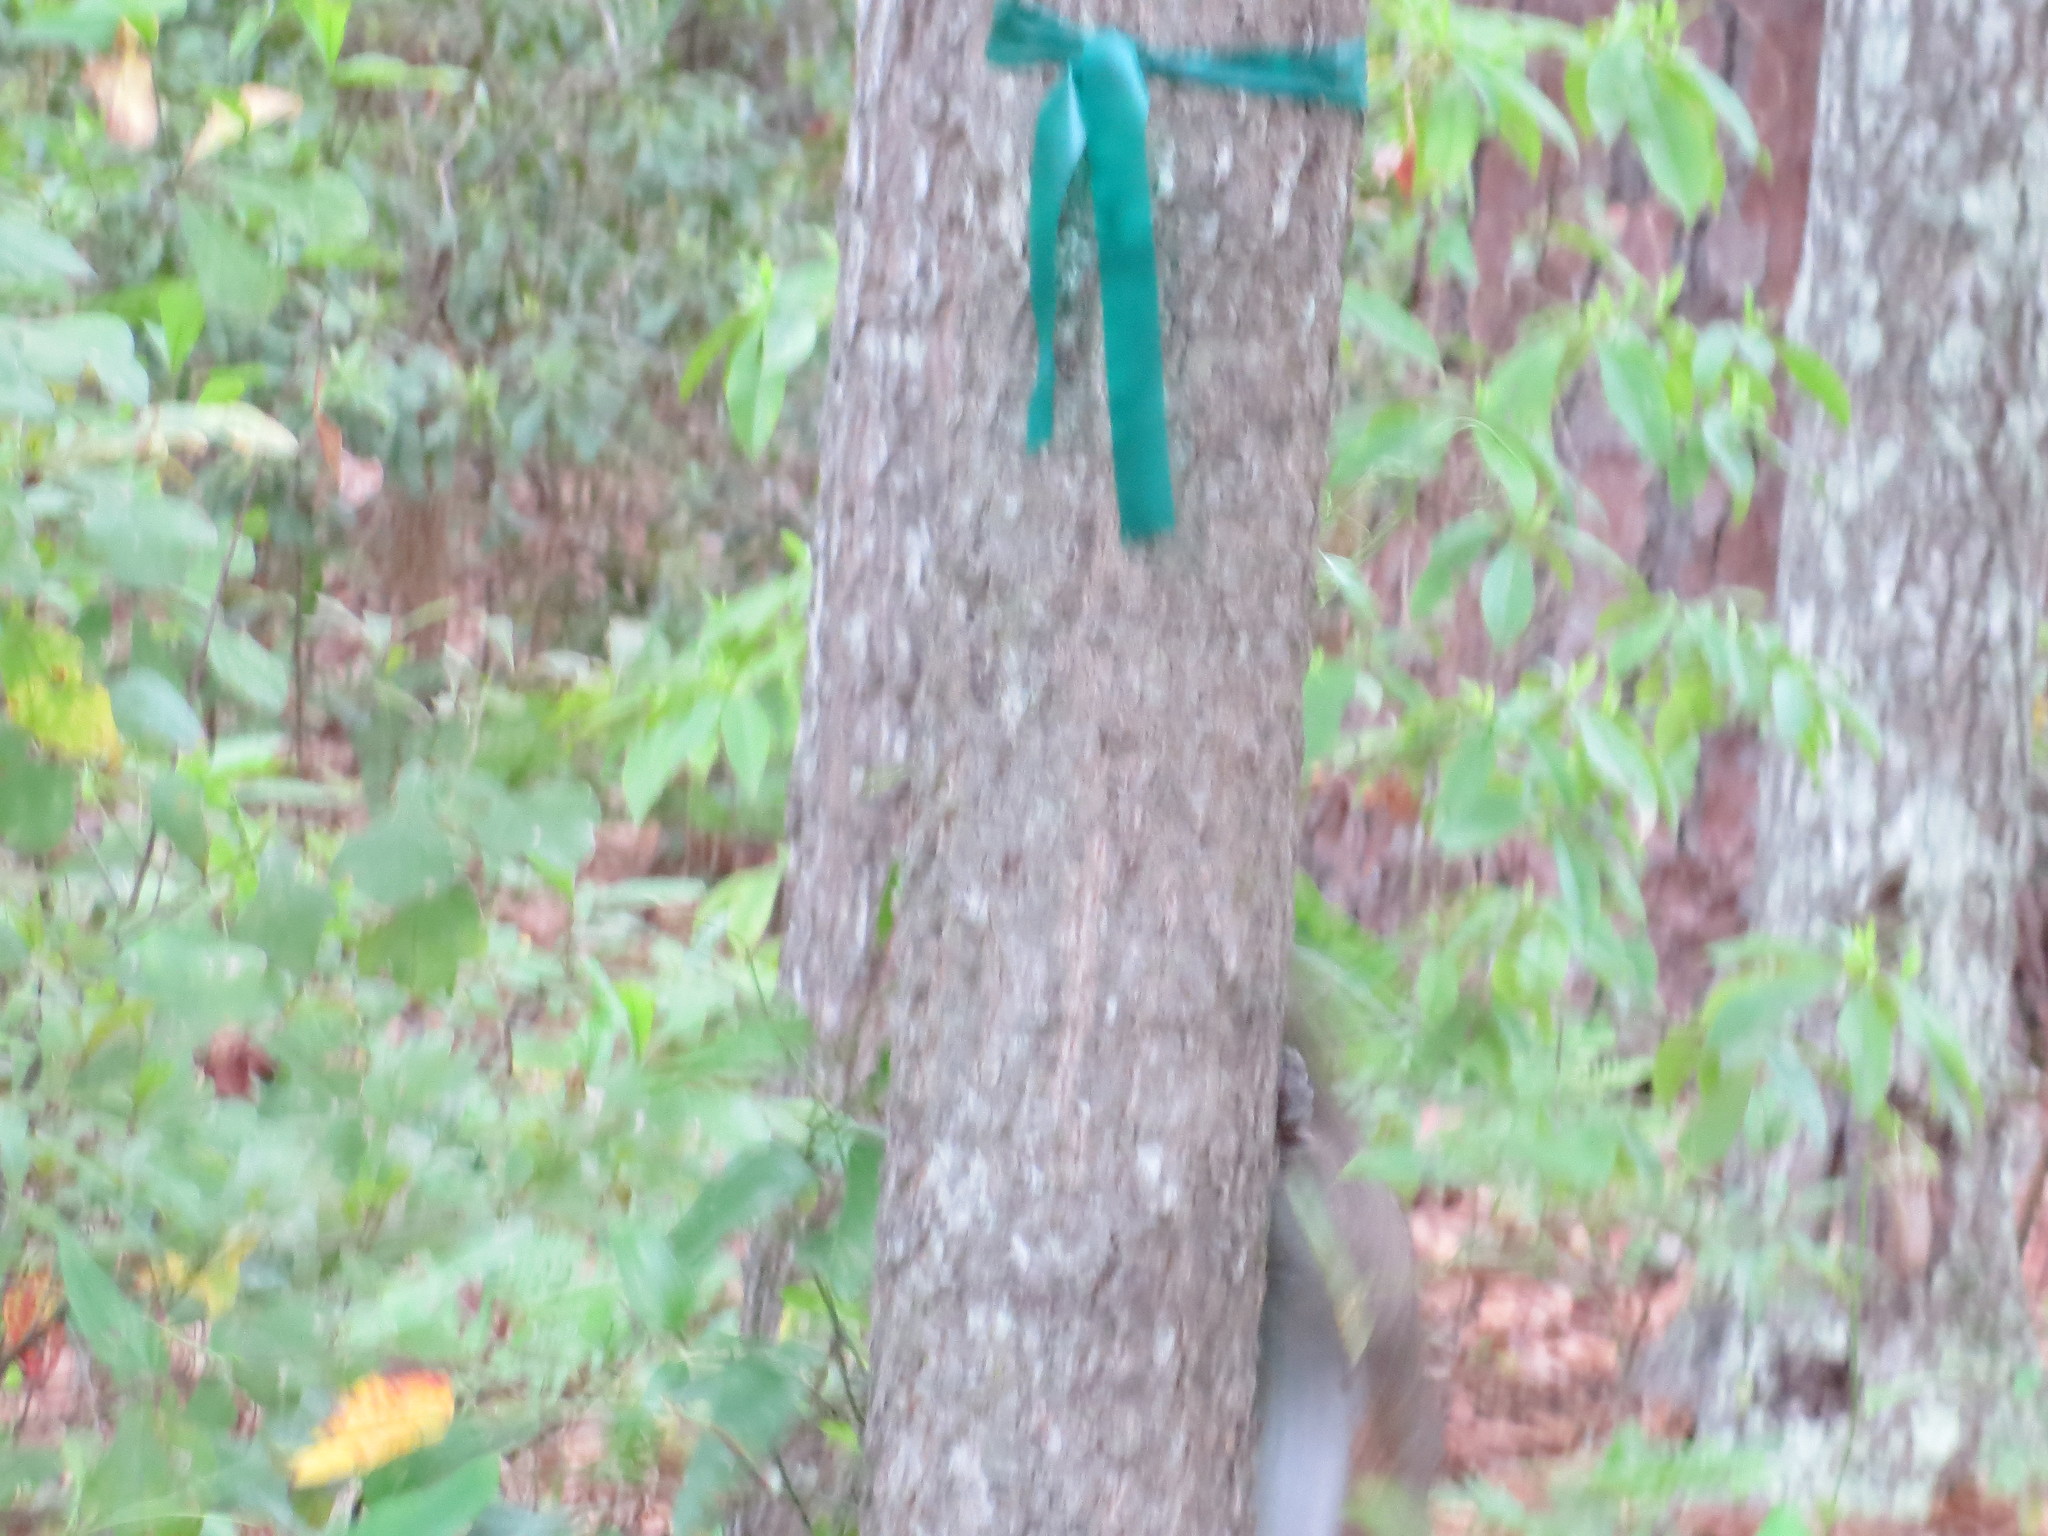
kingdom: Animalia
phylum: Chordata
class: Mammalia
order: Rodentia
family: Sciuridae
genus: Sciurus
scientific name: Sciurus carolinensis
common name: Eastern gray squirrel
